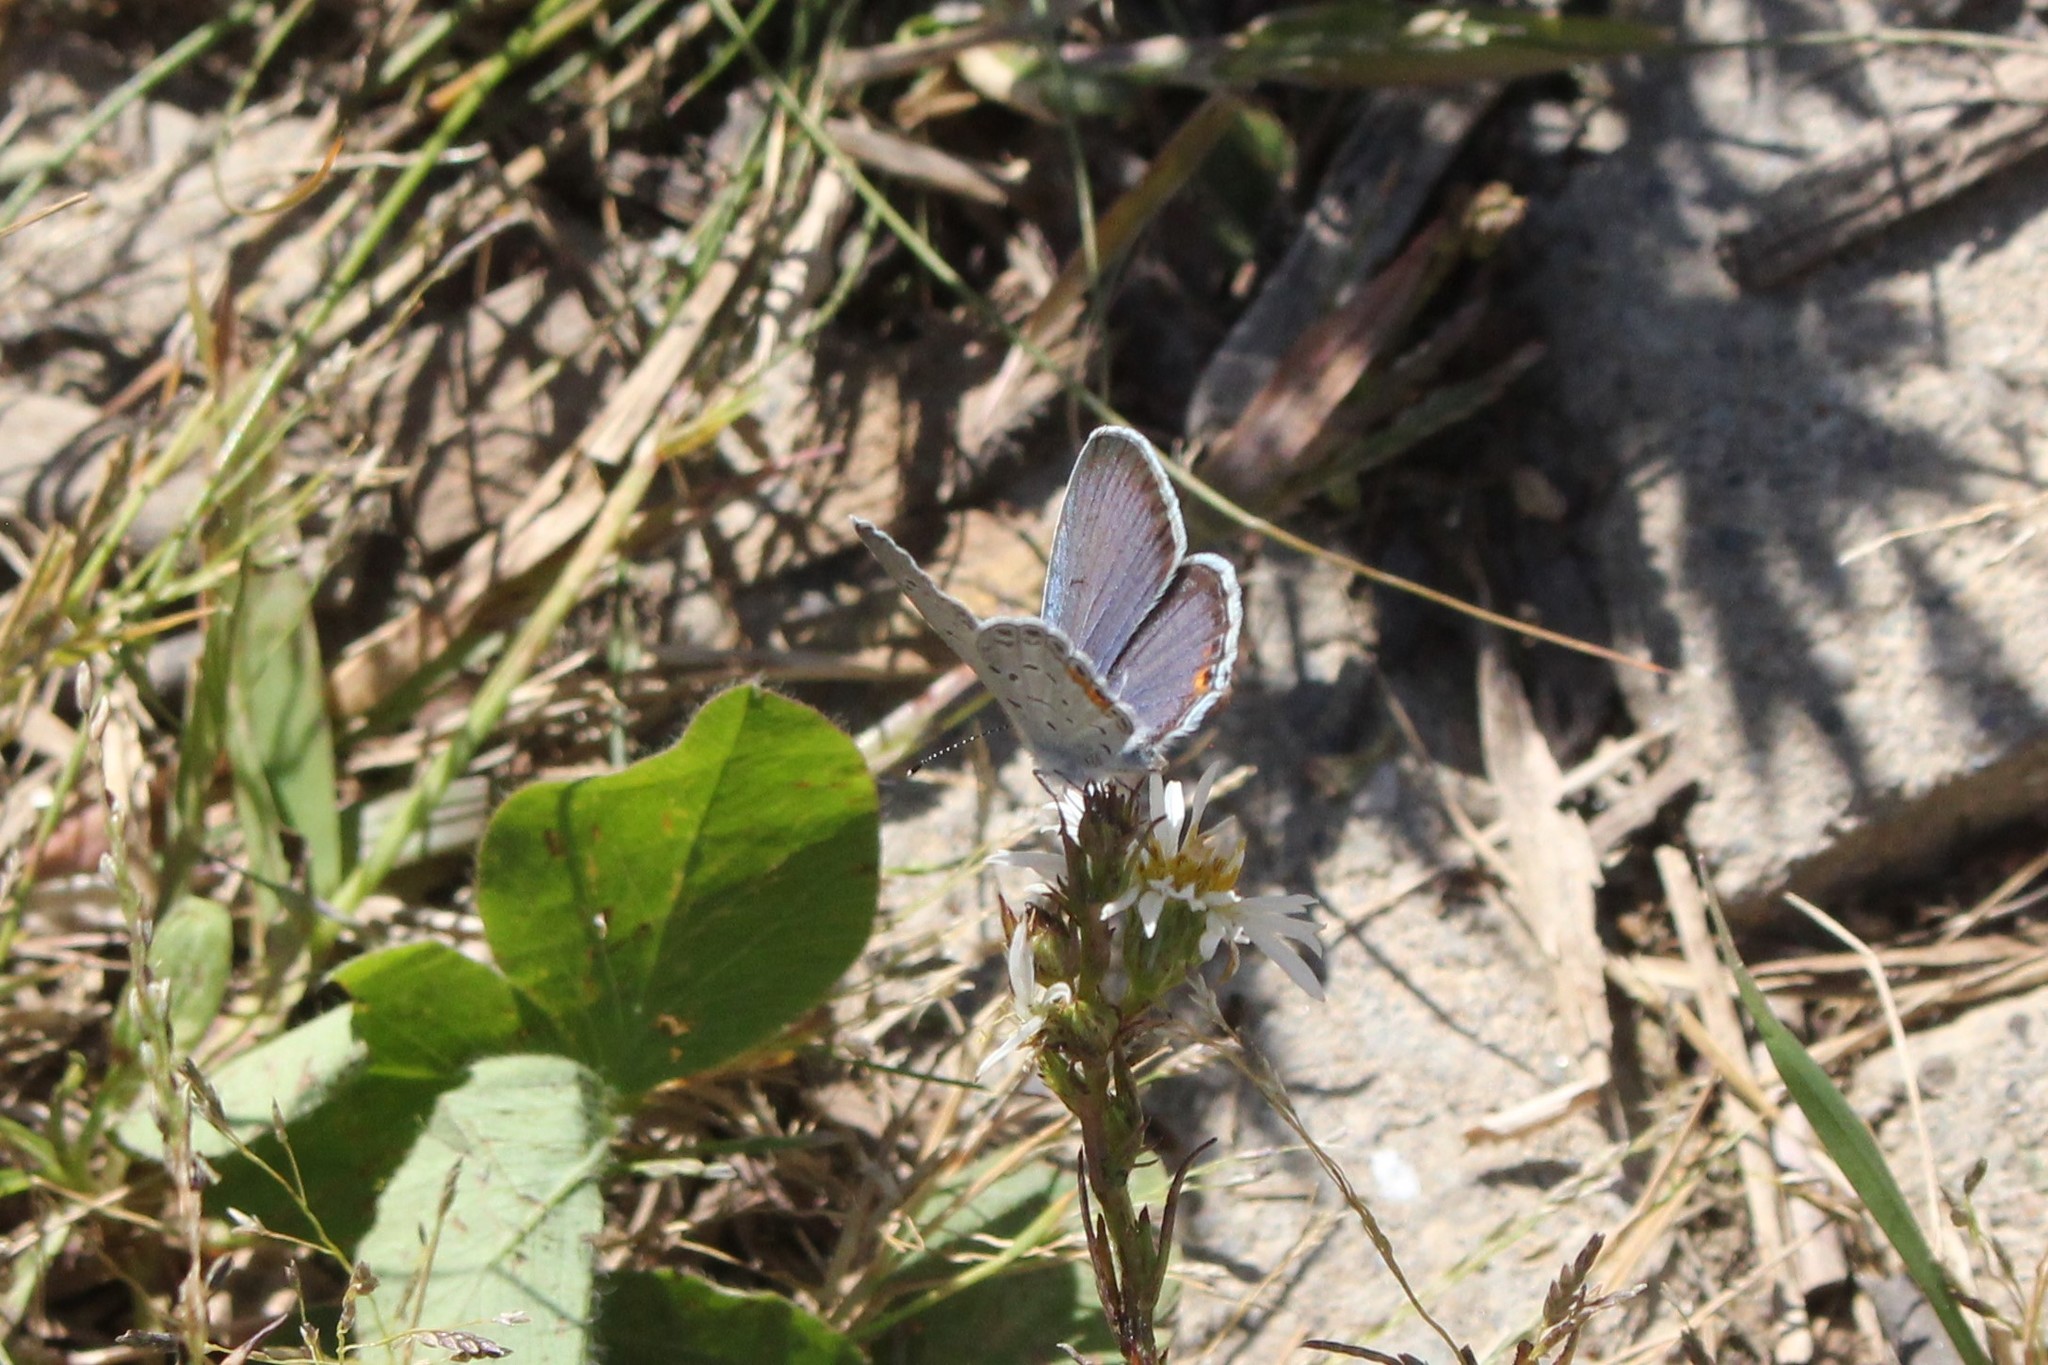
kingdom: Animalia
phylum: Arthropoda
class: Insecta
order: Lepidoptera
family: Lycaenidae
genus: Elkalyce
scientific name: Elkalyce comyntas
